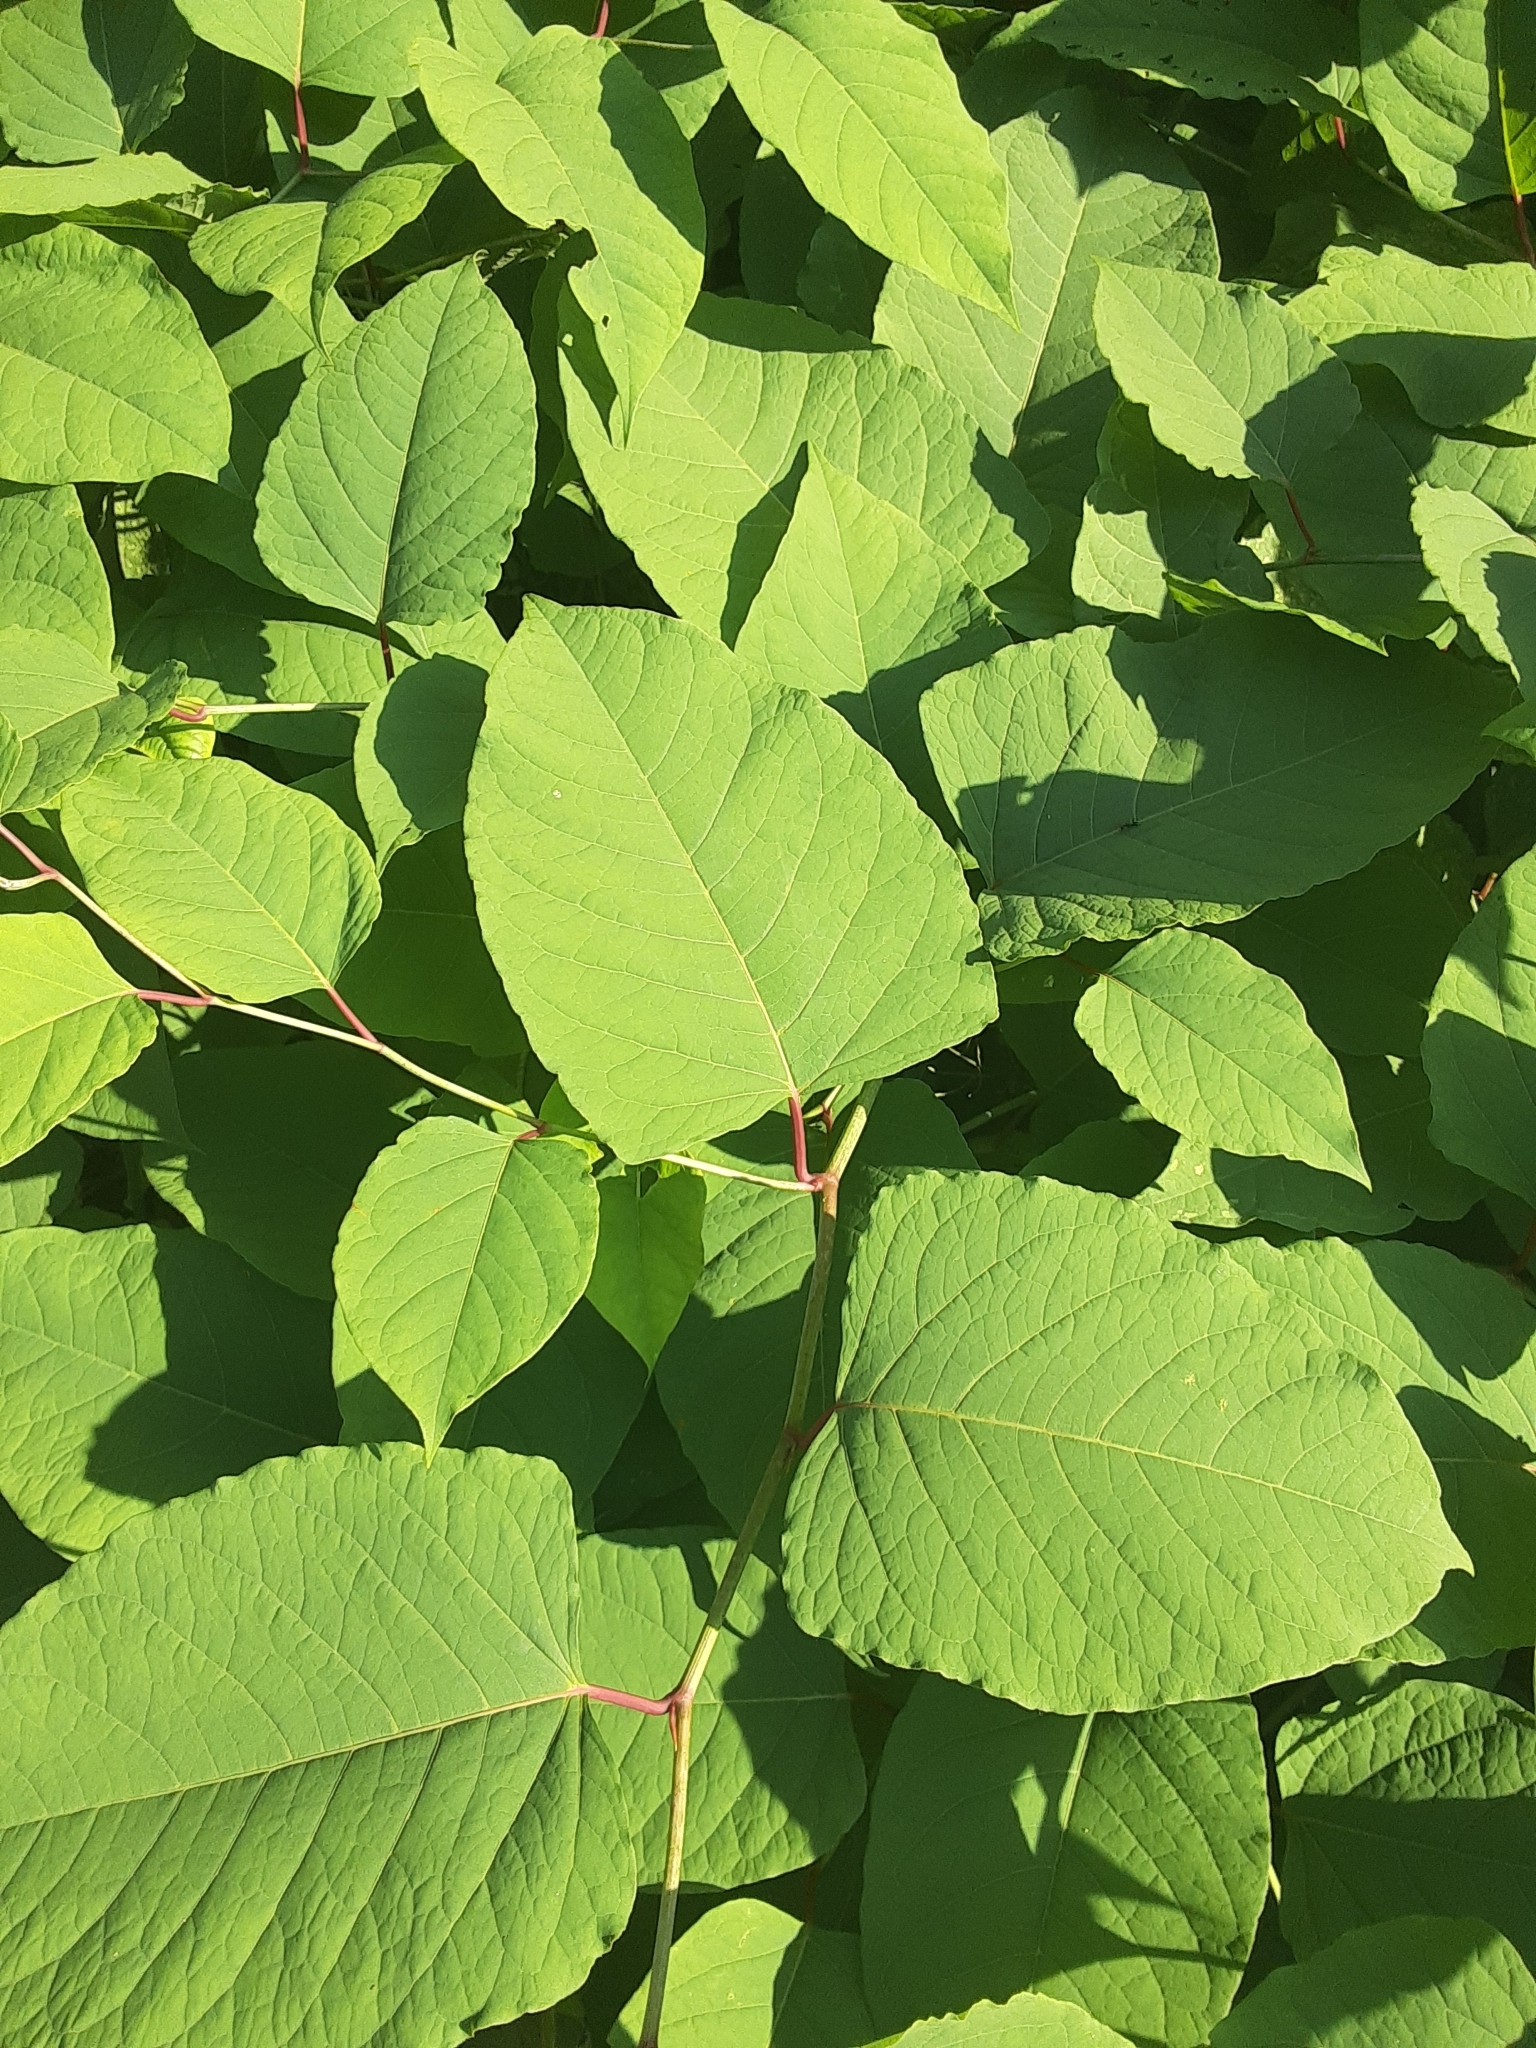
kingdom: Plantae
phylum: Tracheophyta
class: Magnoliopsida
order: Caryophyllales
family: Polygonaceae
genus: Reynoutria
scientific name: Reynoutria japonica
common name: Japanese knotweed
